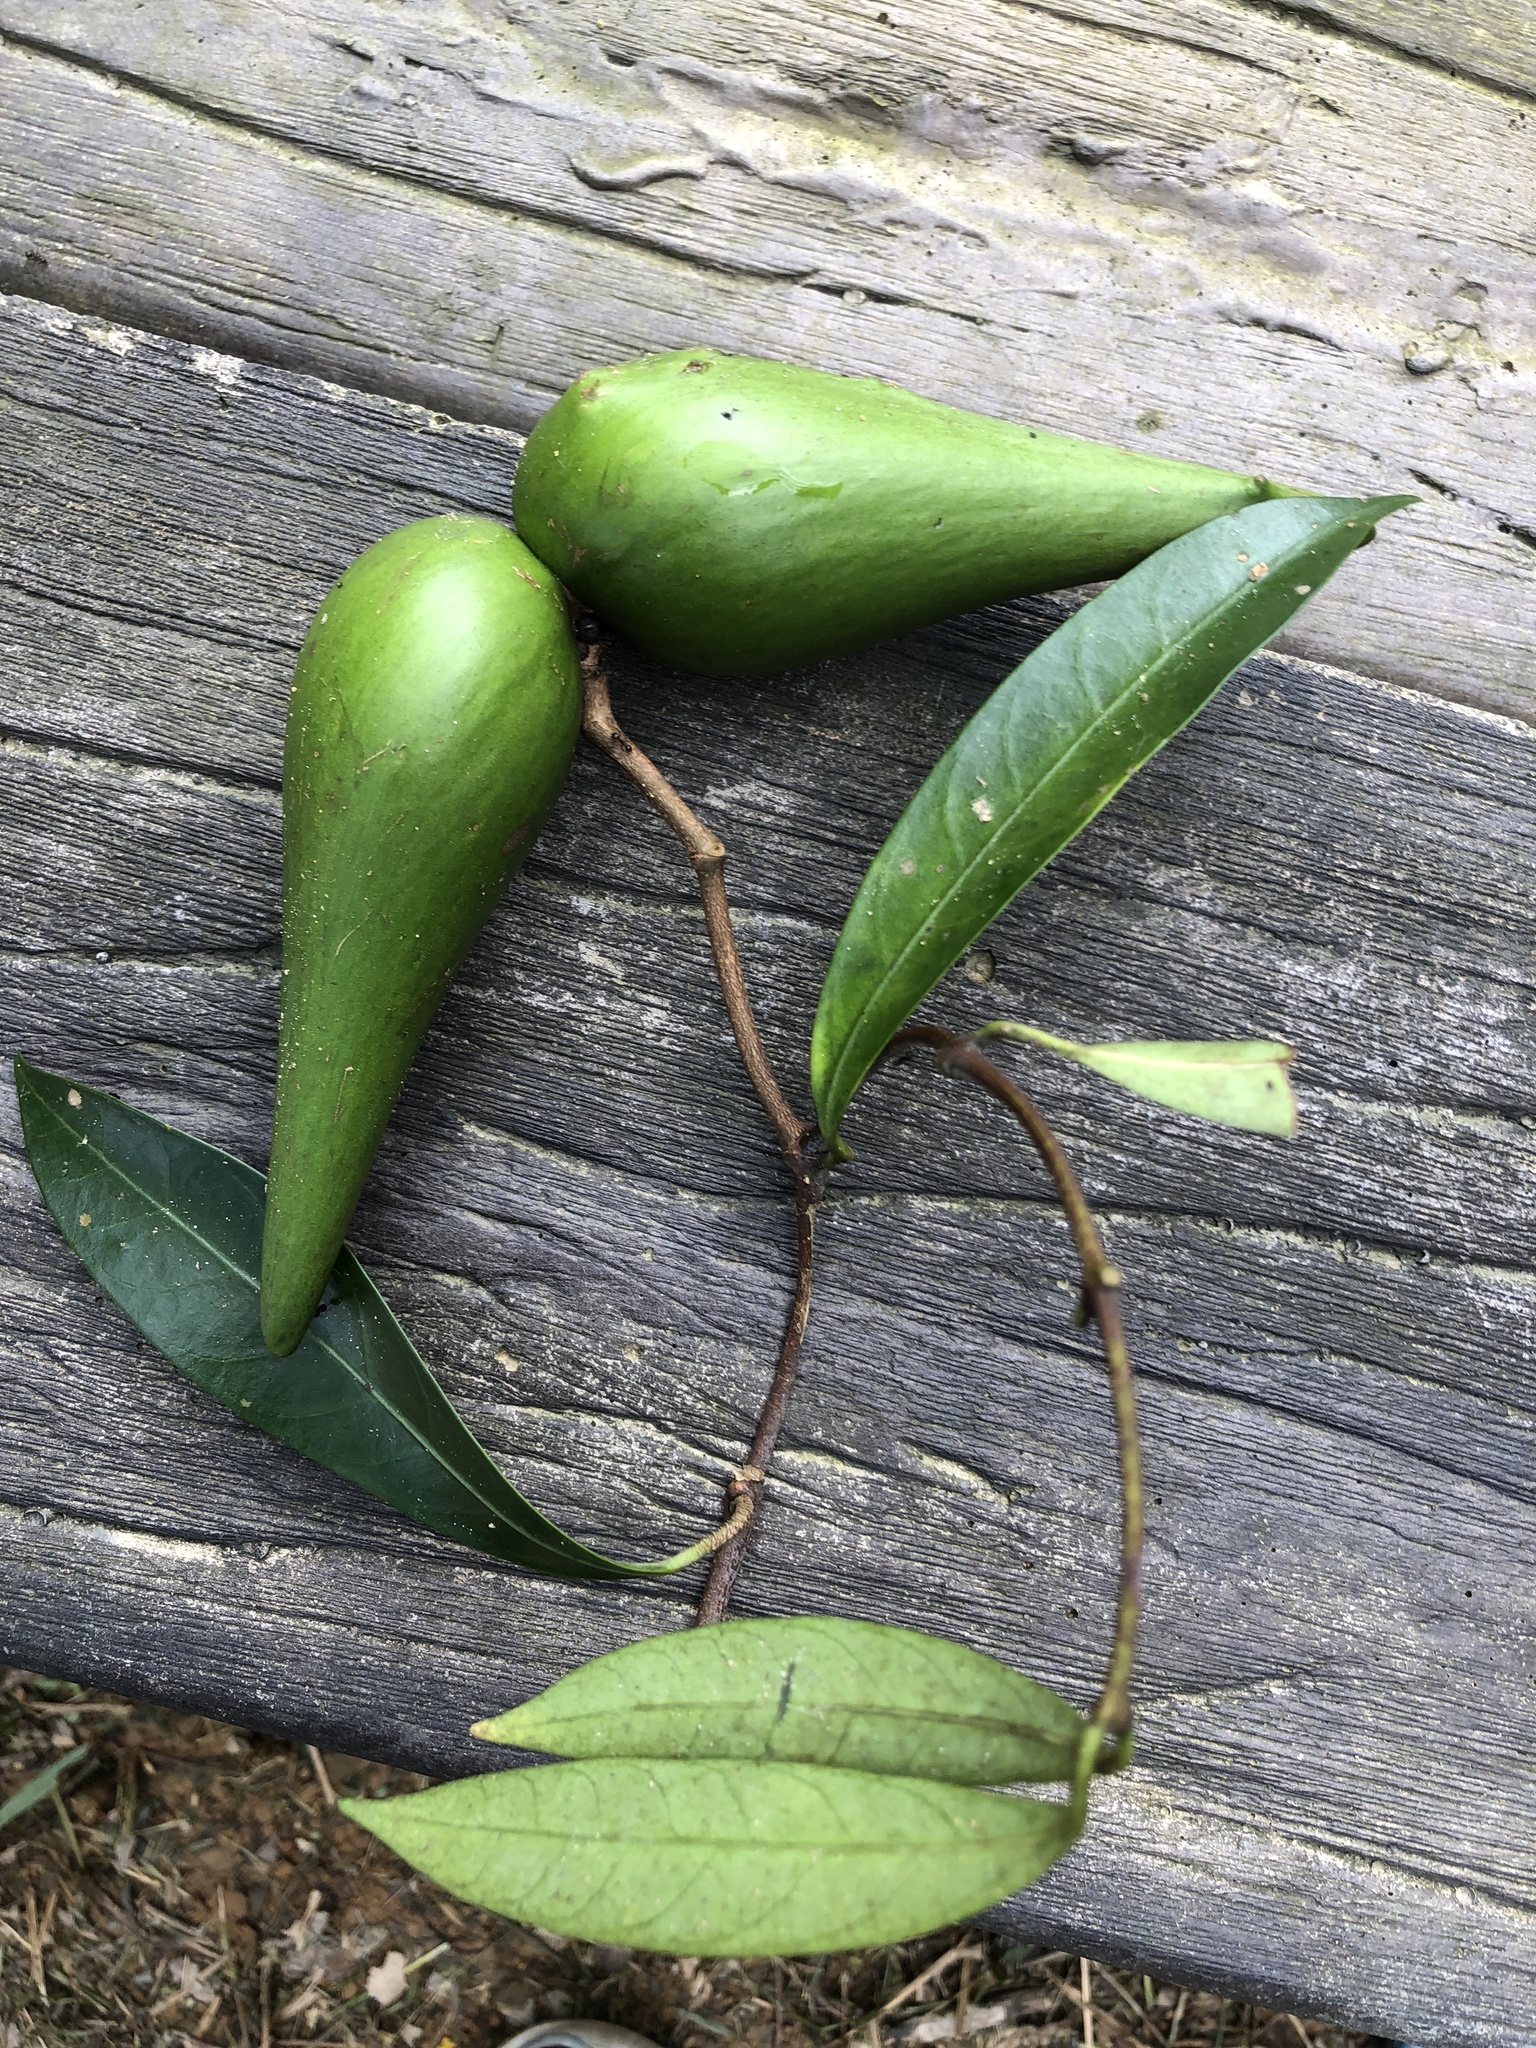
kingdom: Plantae
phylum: Tracheophyta
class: Magnoliopsida
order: Gentianales
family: Apocynaceae
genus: Anodendron
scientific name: Anodendron affine
